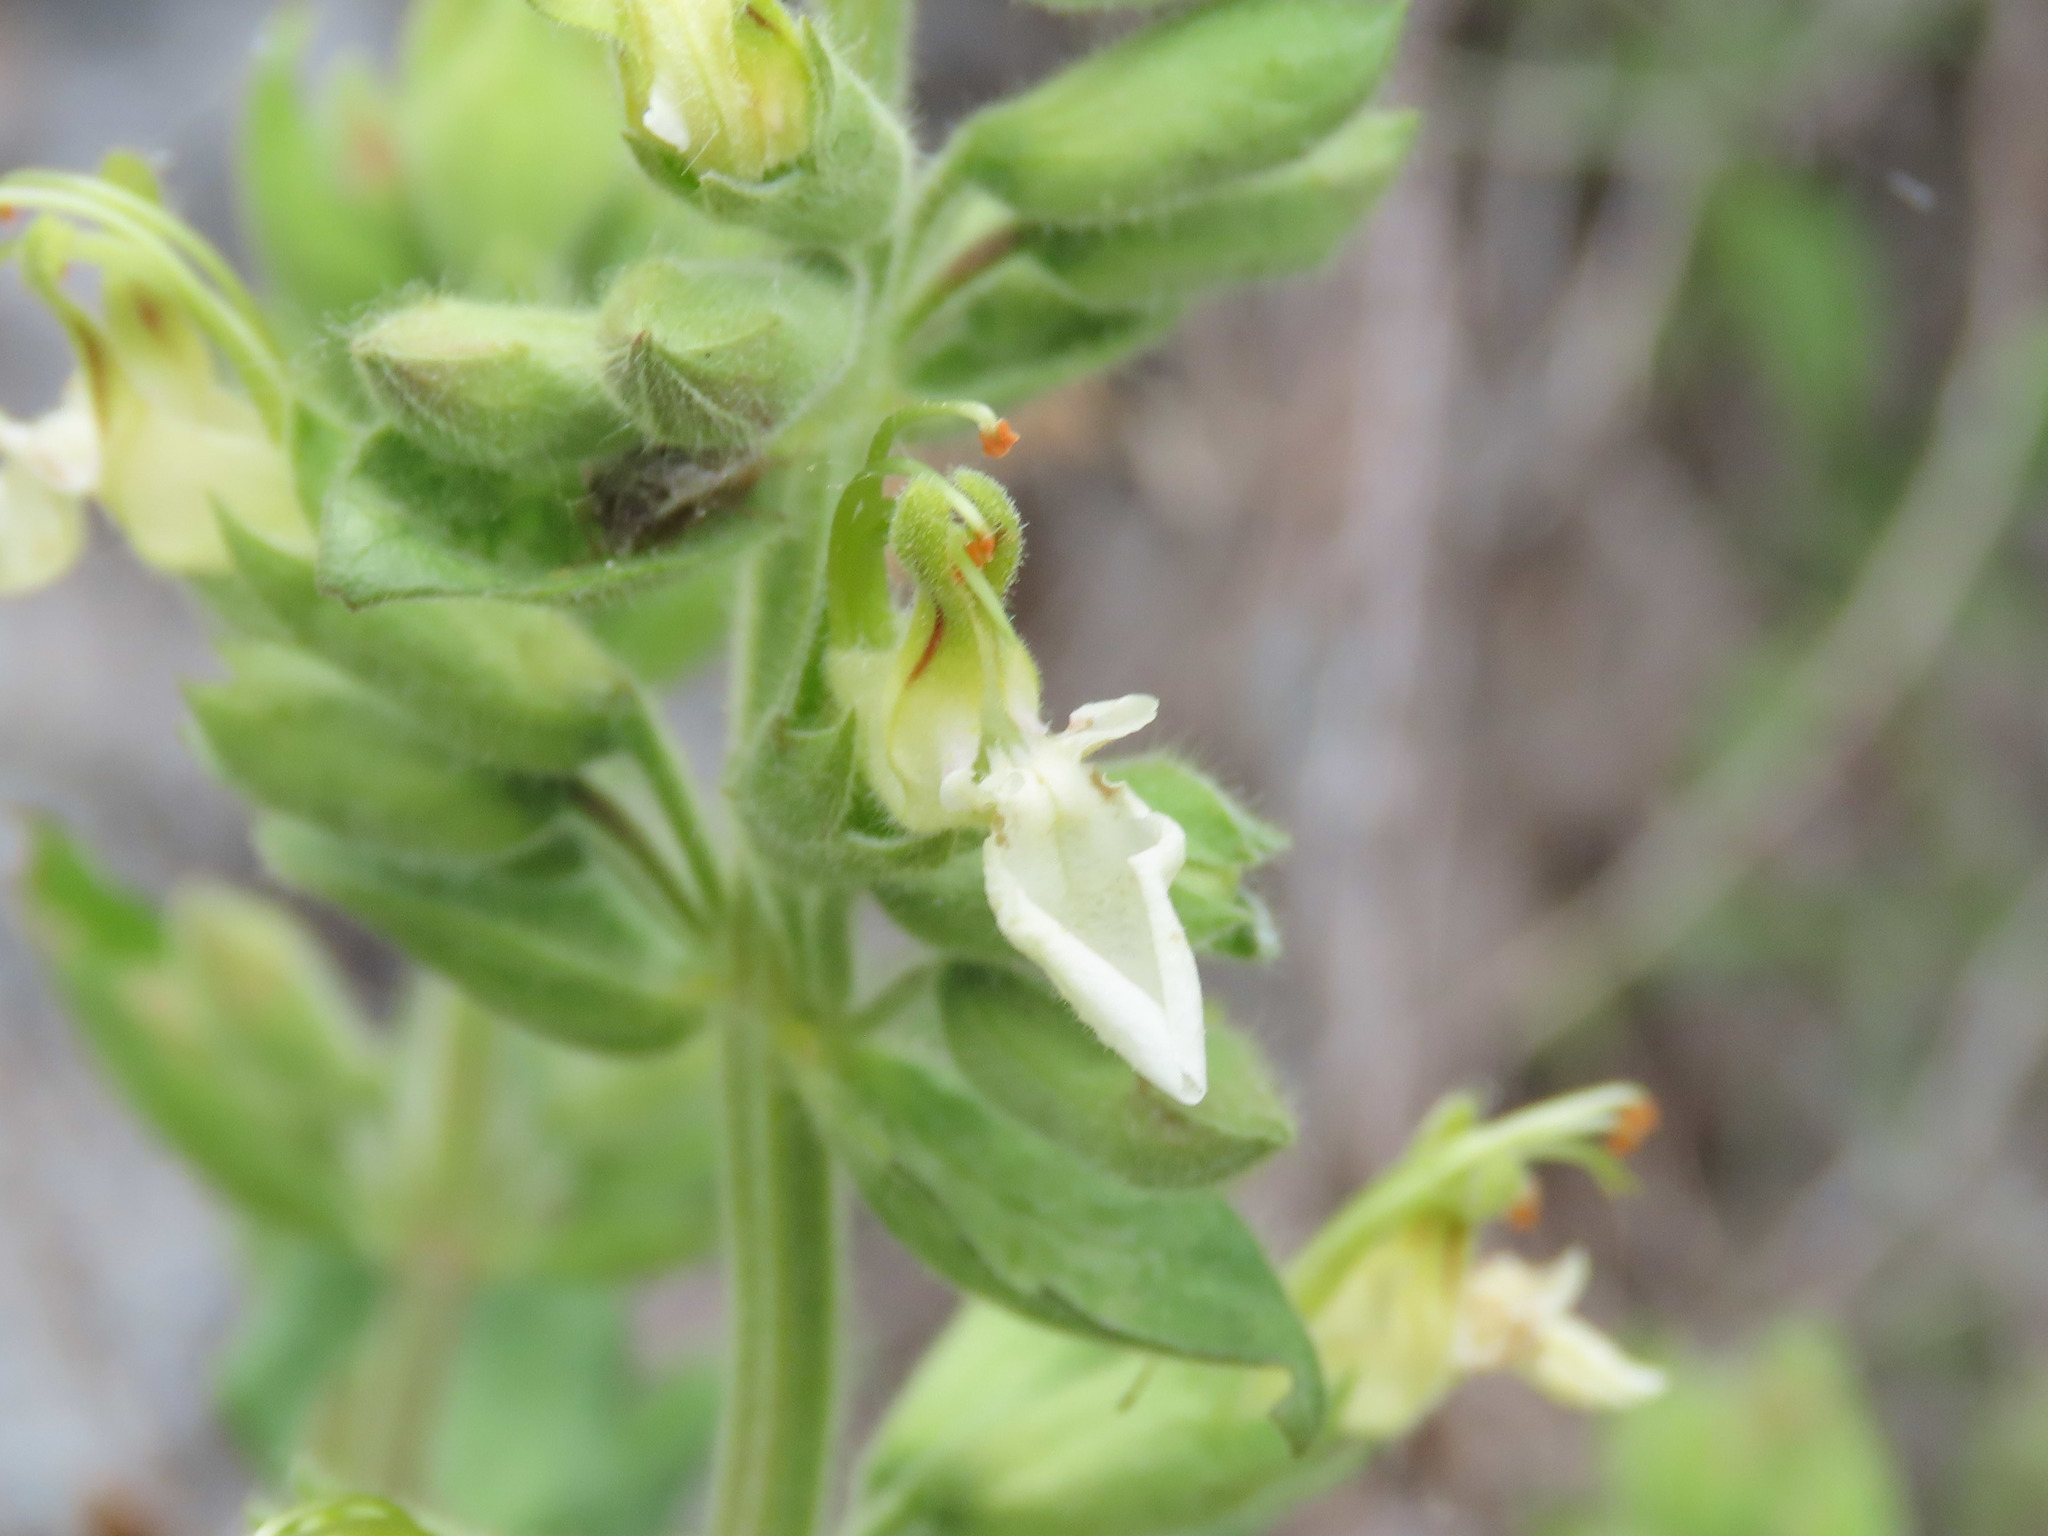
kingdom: Plantae
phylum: Tracheophyta
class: Magnoliopsida
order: Lamiales
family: Lamiaceae
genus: Teucrium
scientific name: Teucrium flavum
